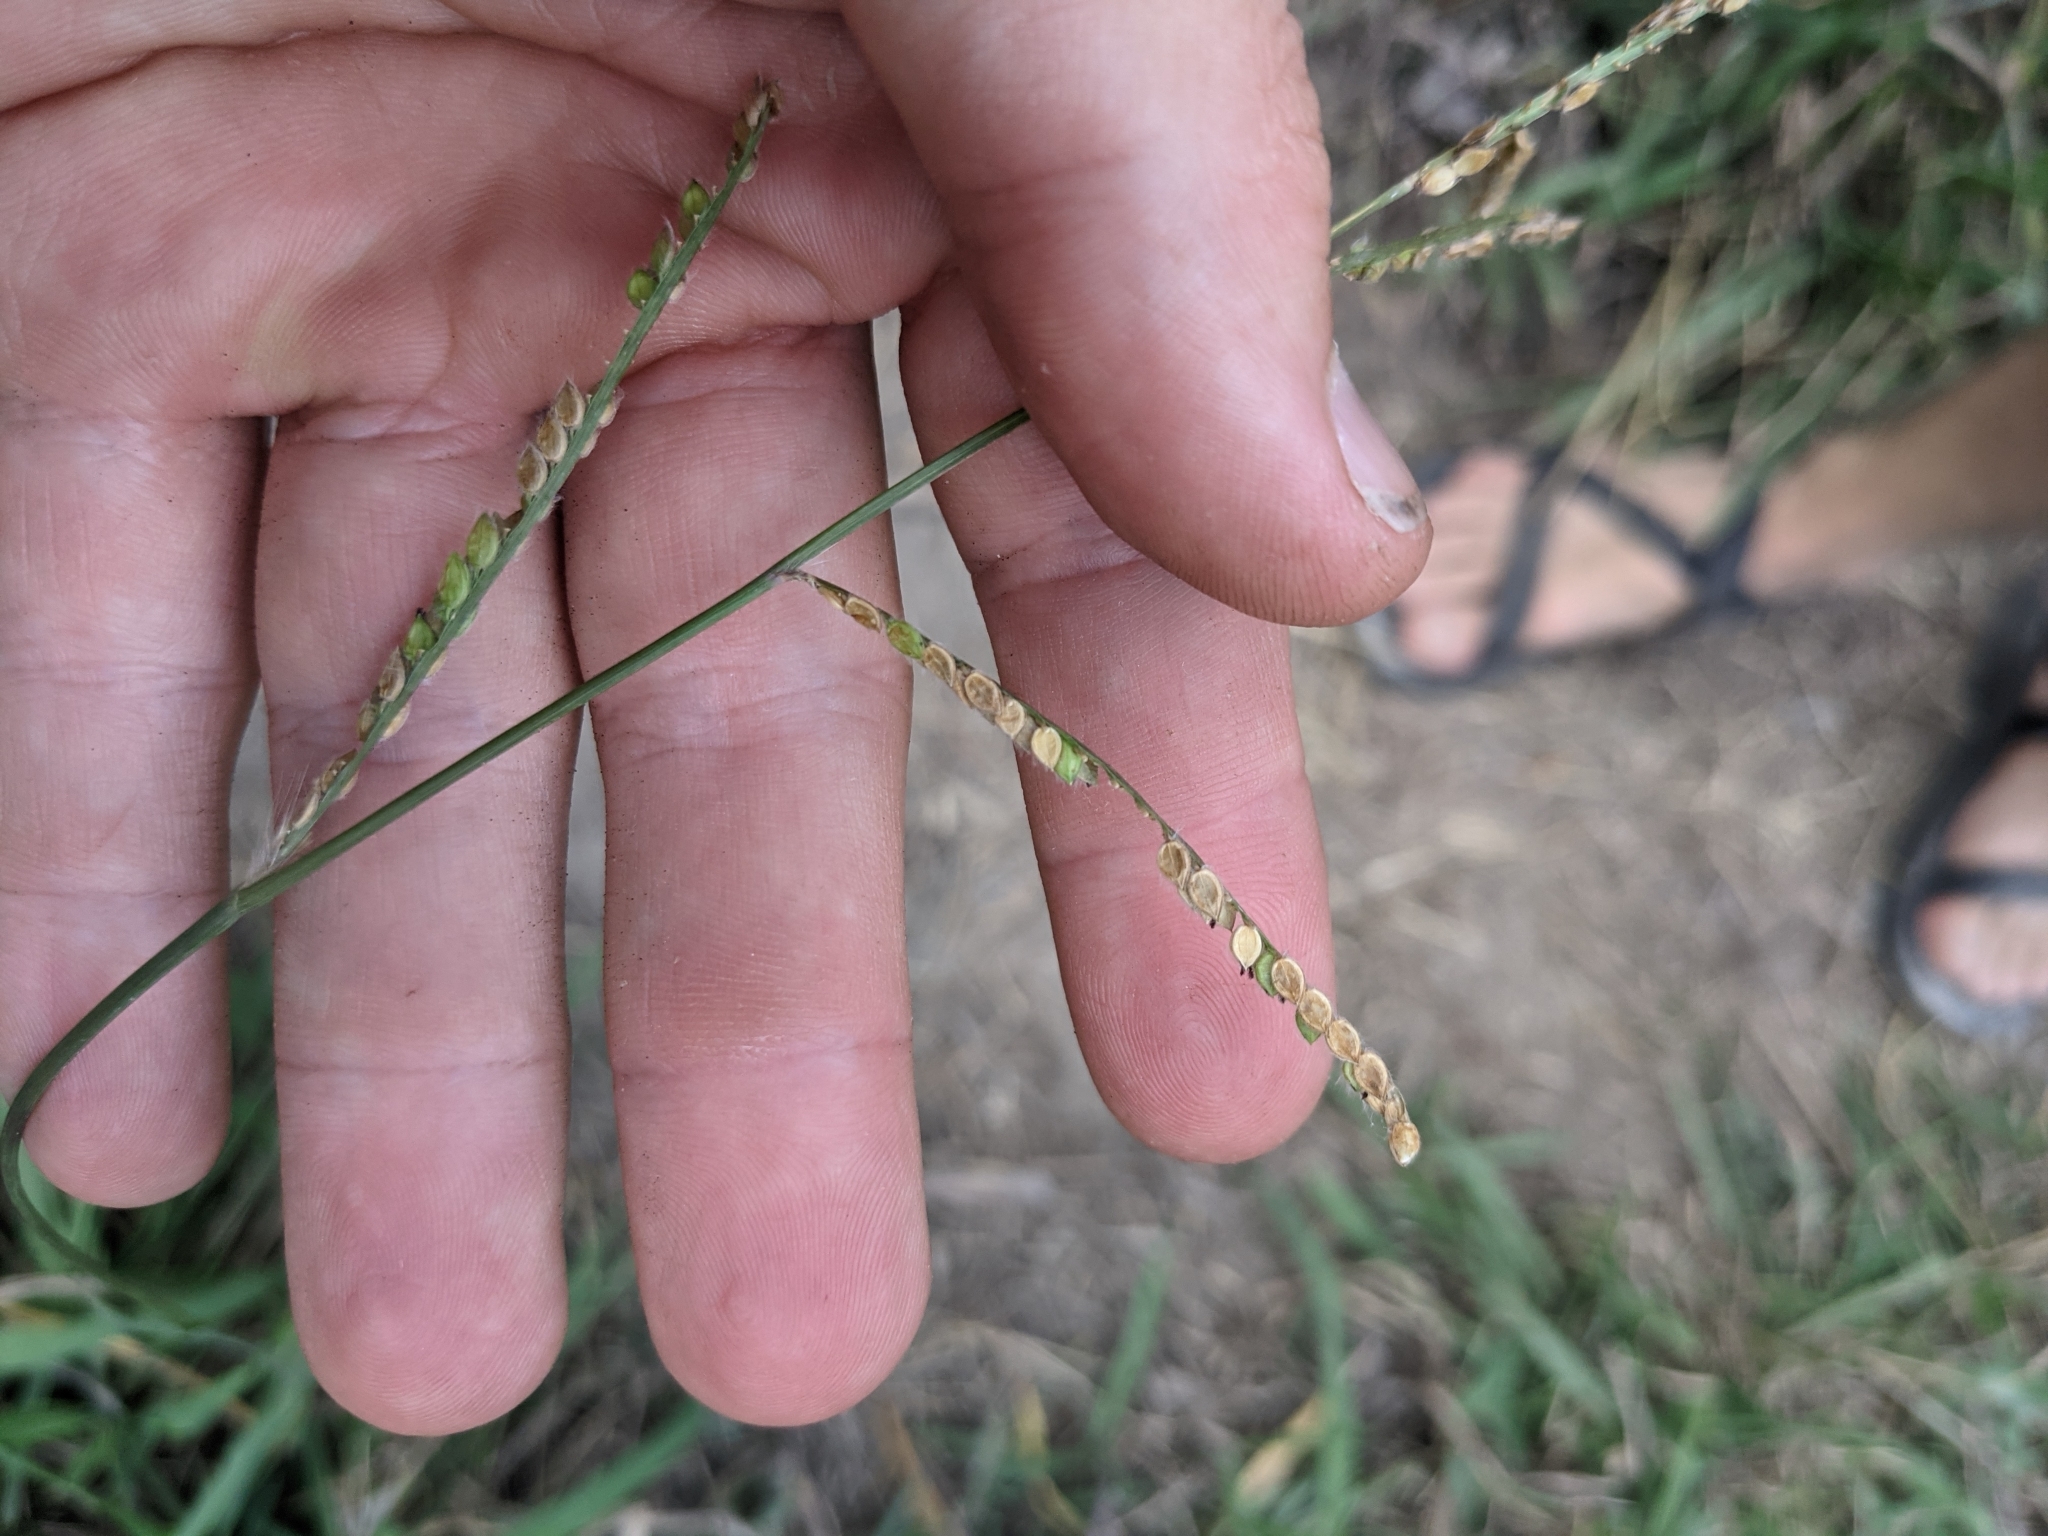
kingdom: Plantae
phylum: Tracheophyta
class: Liliopsida
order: Poales
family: Poaceae
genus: Paspalum
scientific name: Paspalum dilatatum
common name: Dallisgrass
